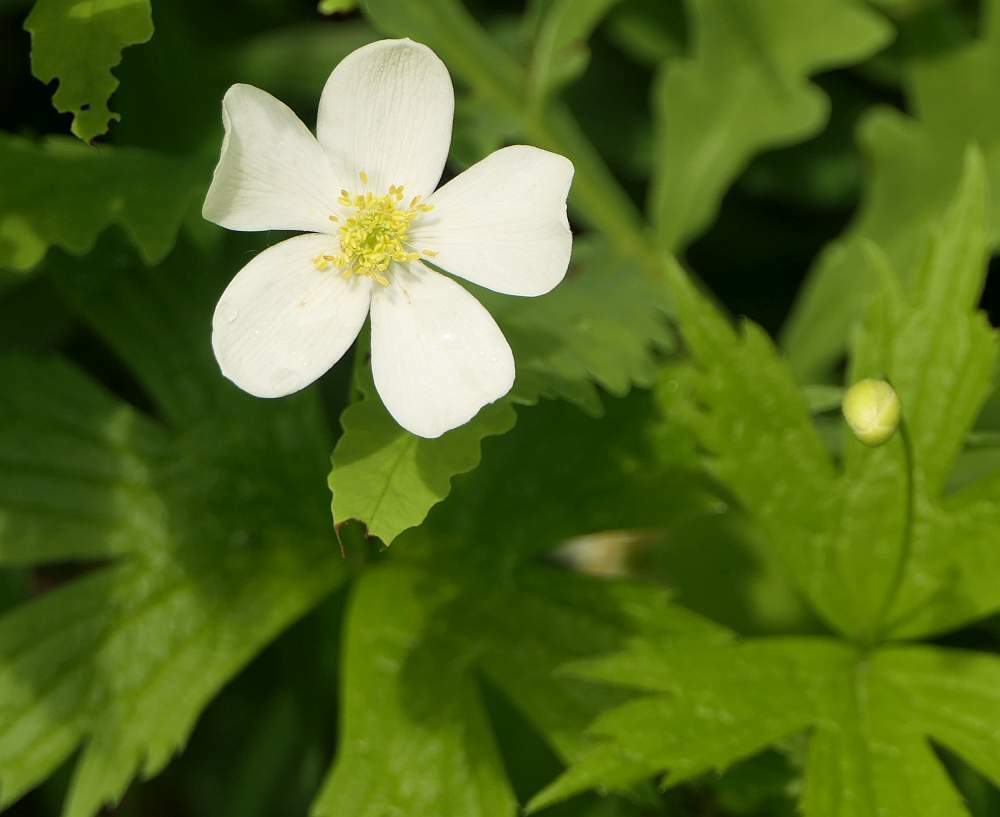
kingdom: Plantae
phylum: Tracheophyta
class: Magnoliopsida
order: Ranunculales
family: Ranunculaceae
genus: Anemonastrum
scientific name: Anemonastrum canadense
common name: Canada anemone
